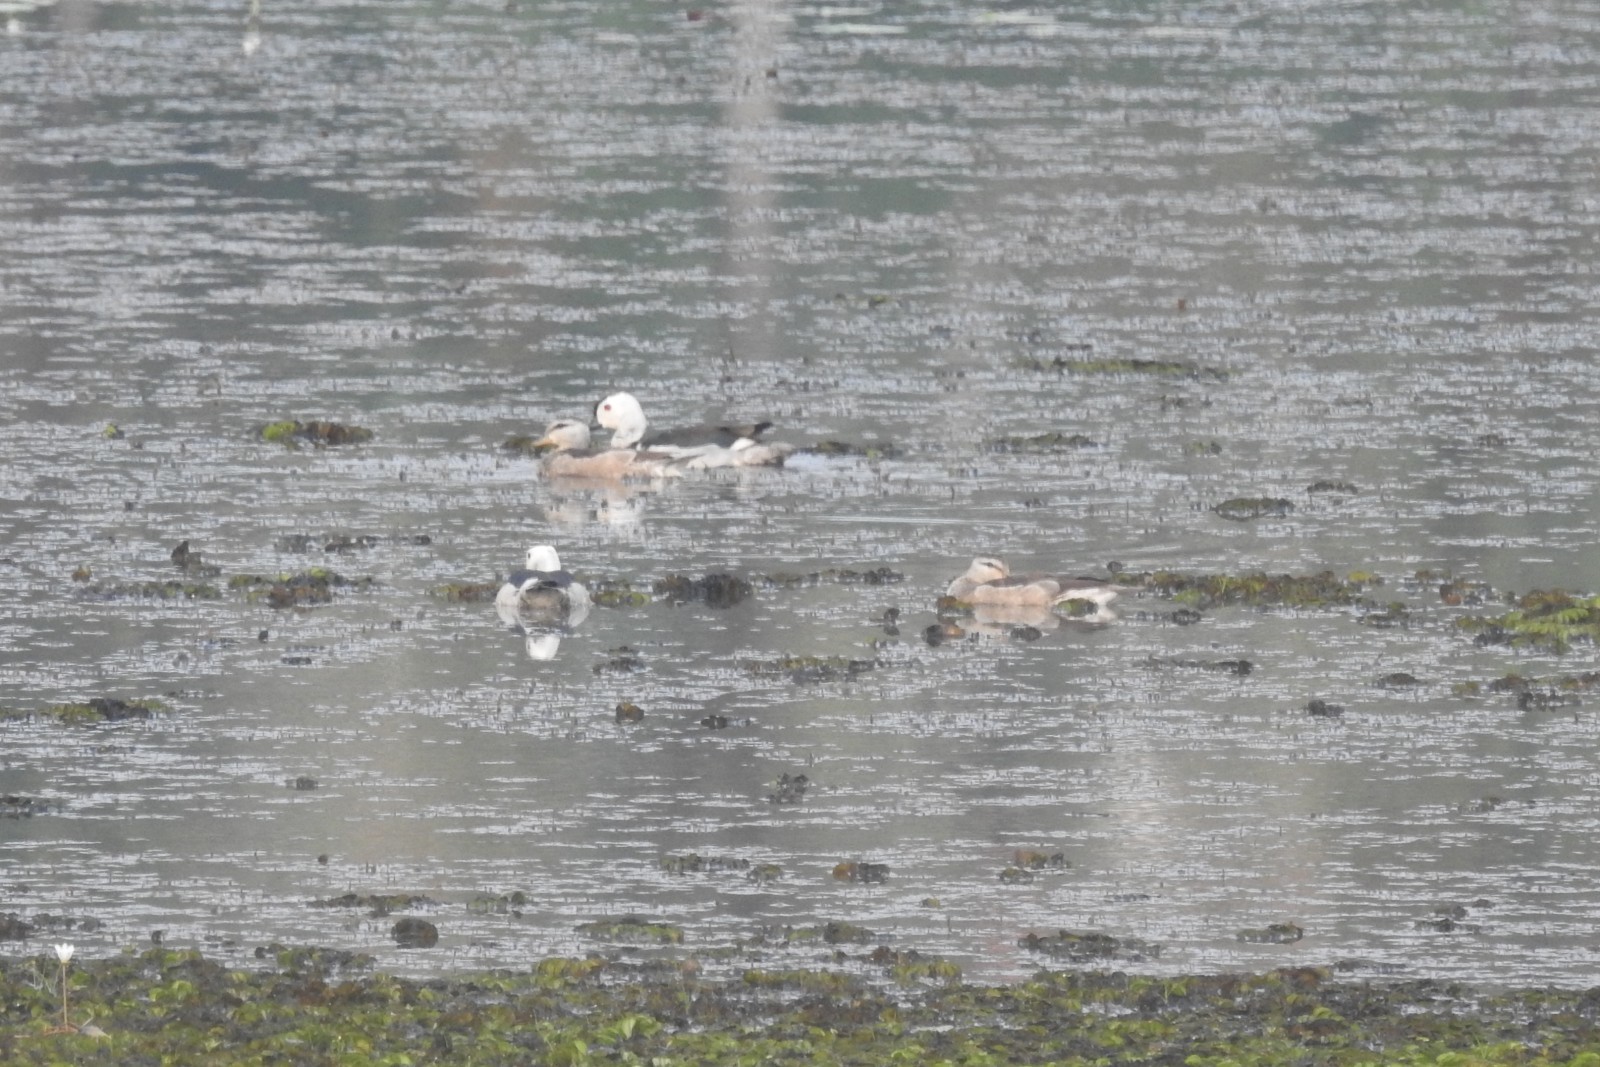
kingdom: Animalia
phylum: Chordata
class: Aves
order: Anseriformes
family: Anatidae
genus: Nettapus
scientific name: Nettapus coromandelianus
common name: Cotton pygmy-goose
